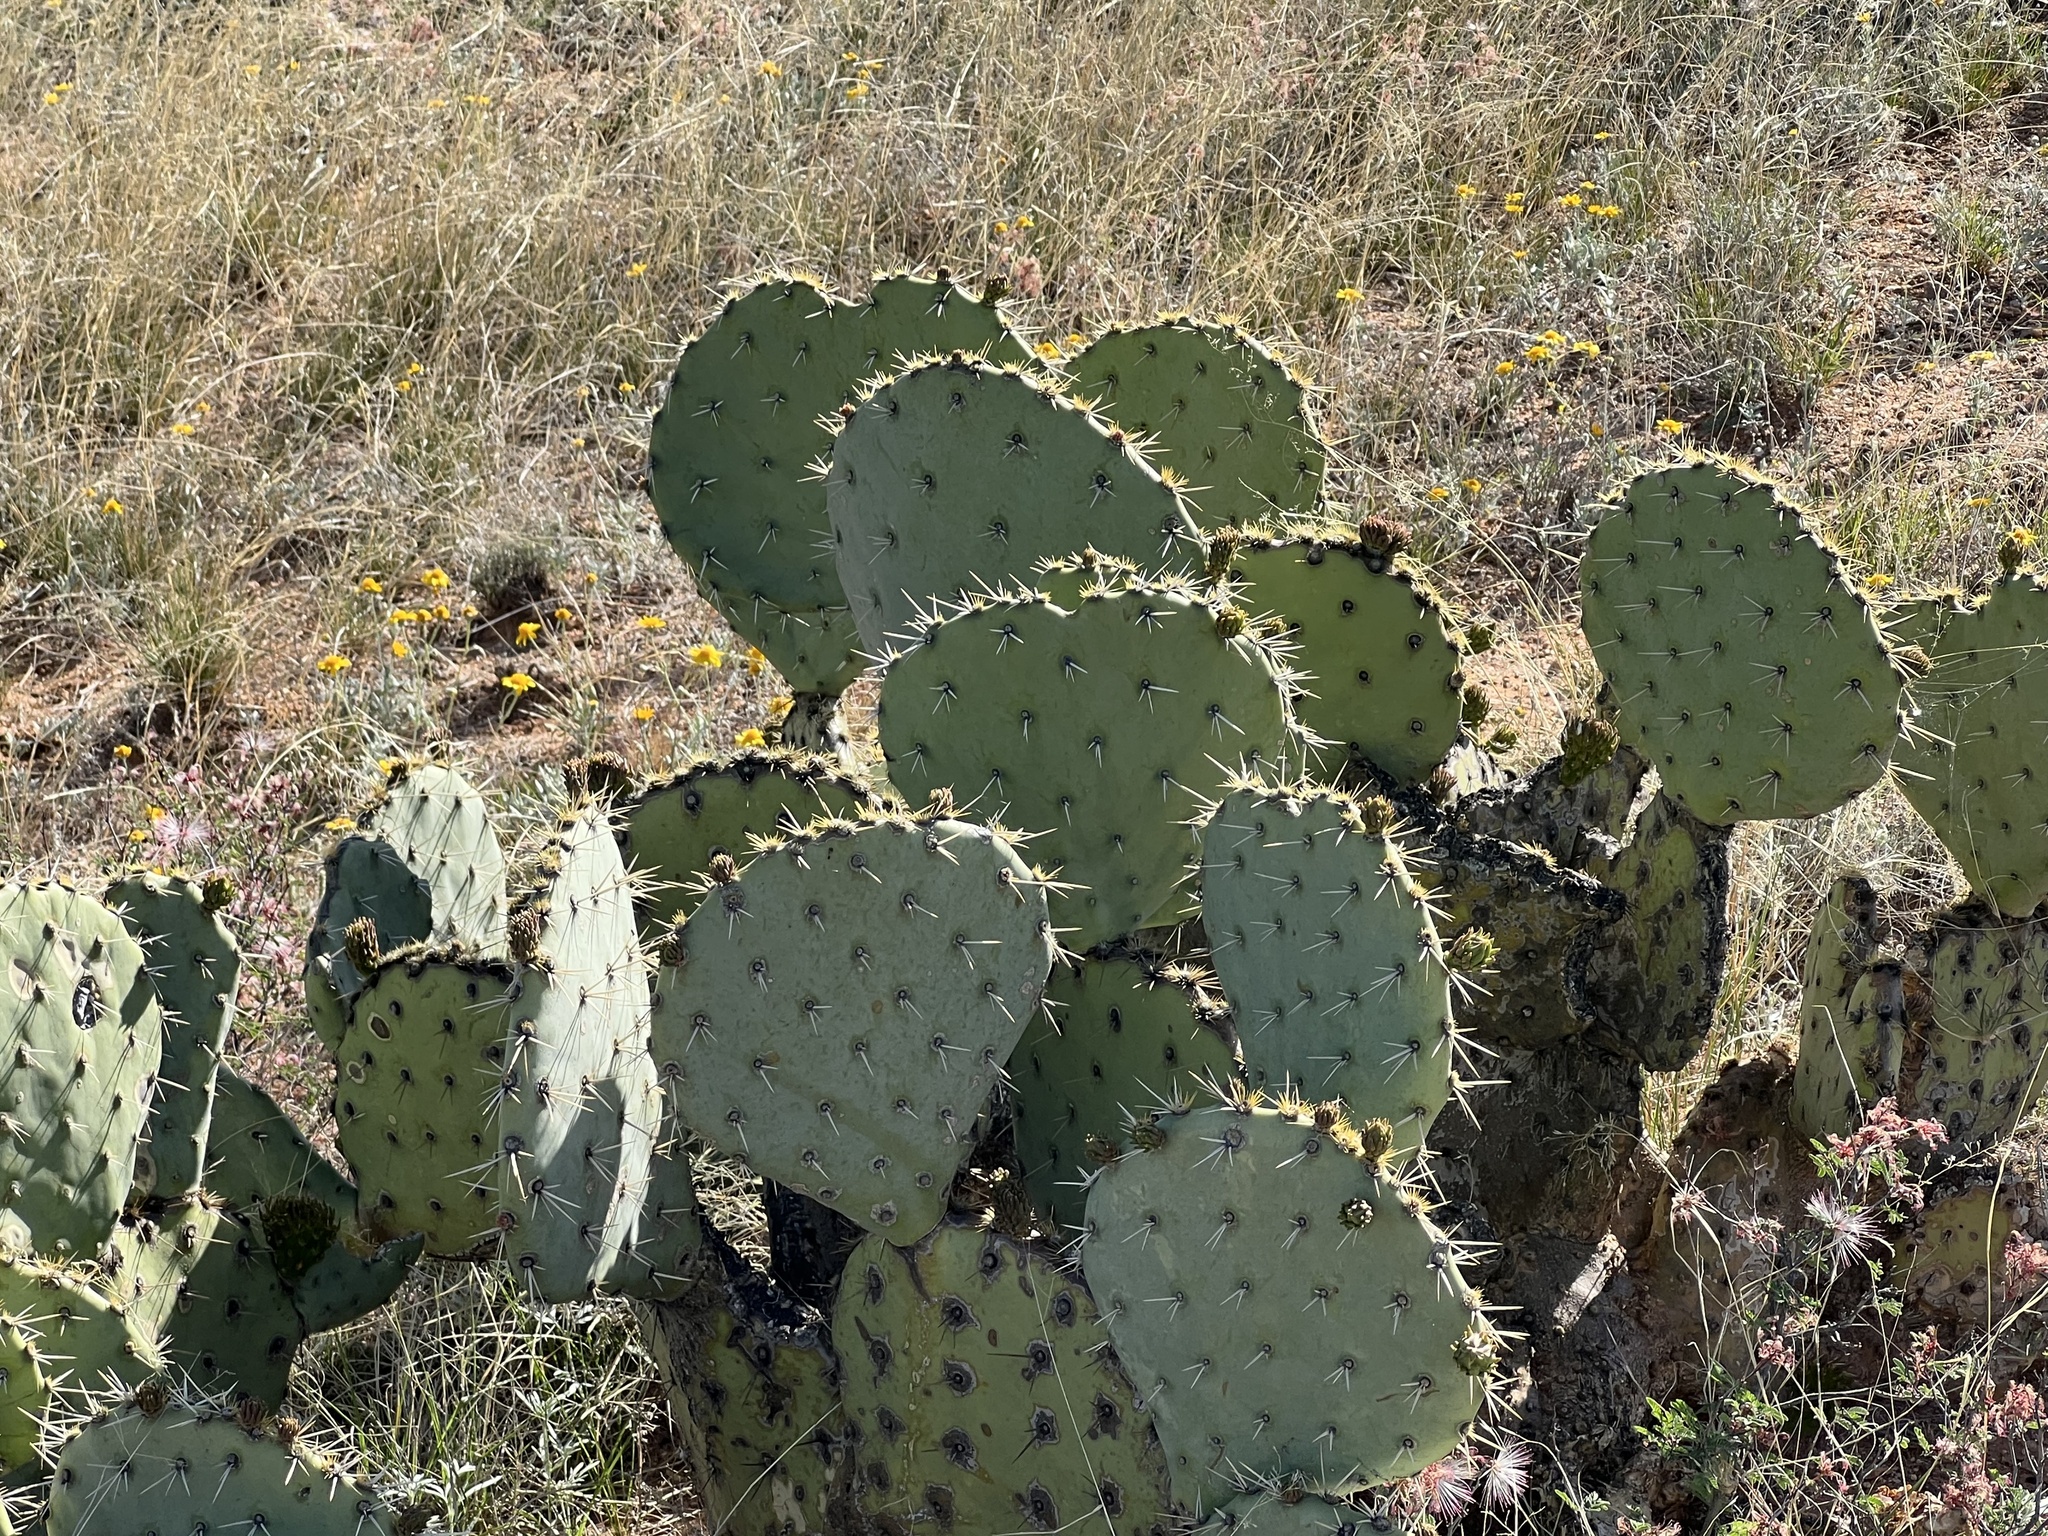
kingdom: Plantae
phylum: Tracheophyta
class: Magnoliopsida
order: Caryophyllales
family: Cactaceae
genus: Opuntia
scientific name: Opuntia engelmannii
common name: Cactus-apple
